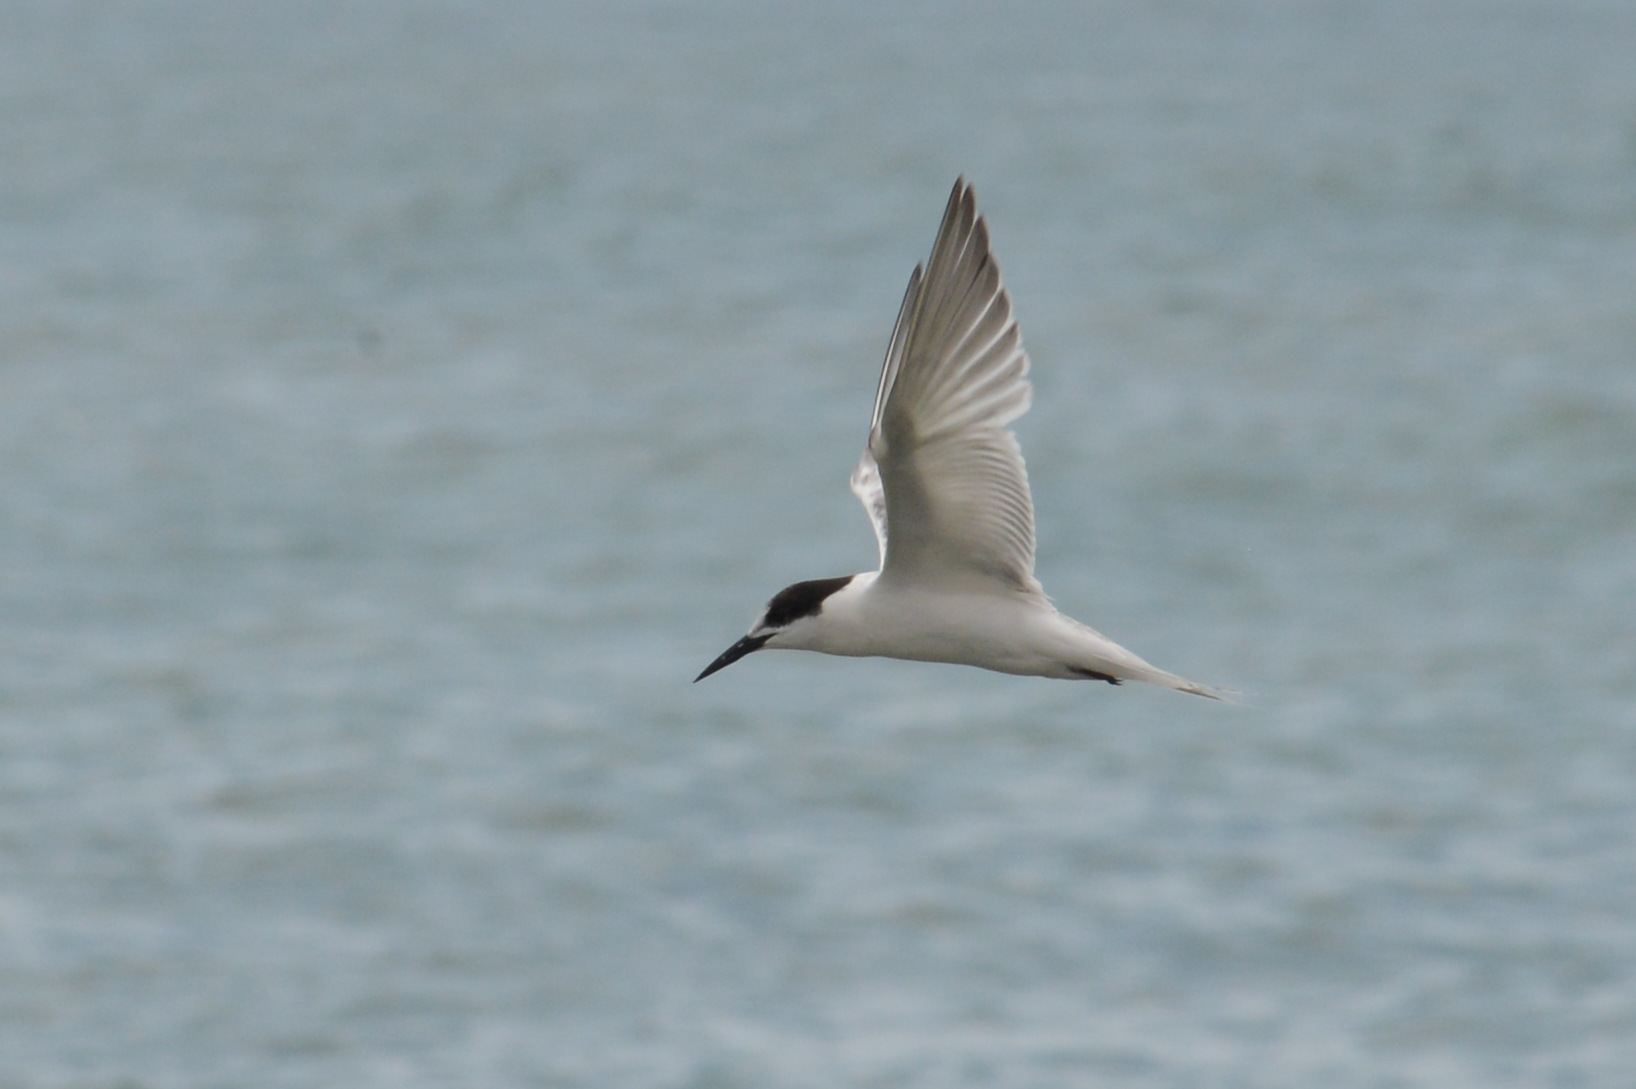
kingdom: Animalia
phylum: Chordata
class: Aves
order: Charadriiformes
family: Laridae
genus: Sterna
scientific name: Sterna dougallii
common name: Roseate tern
